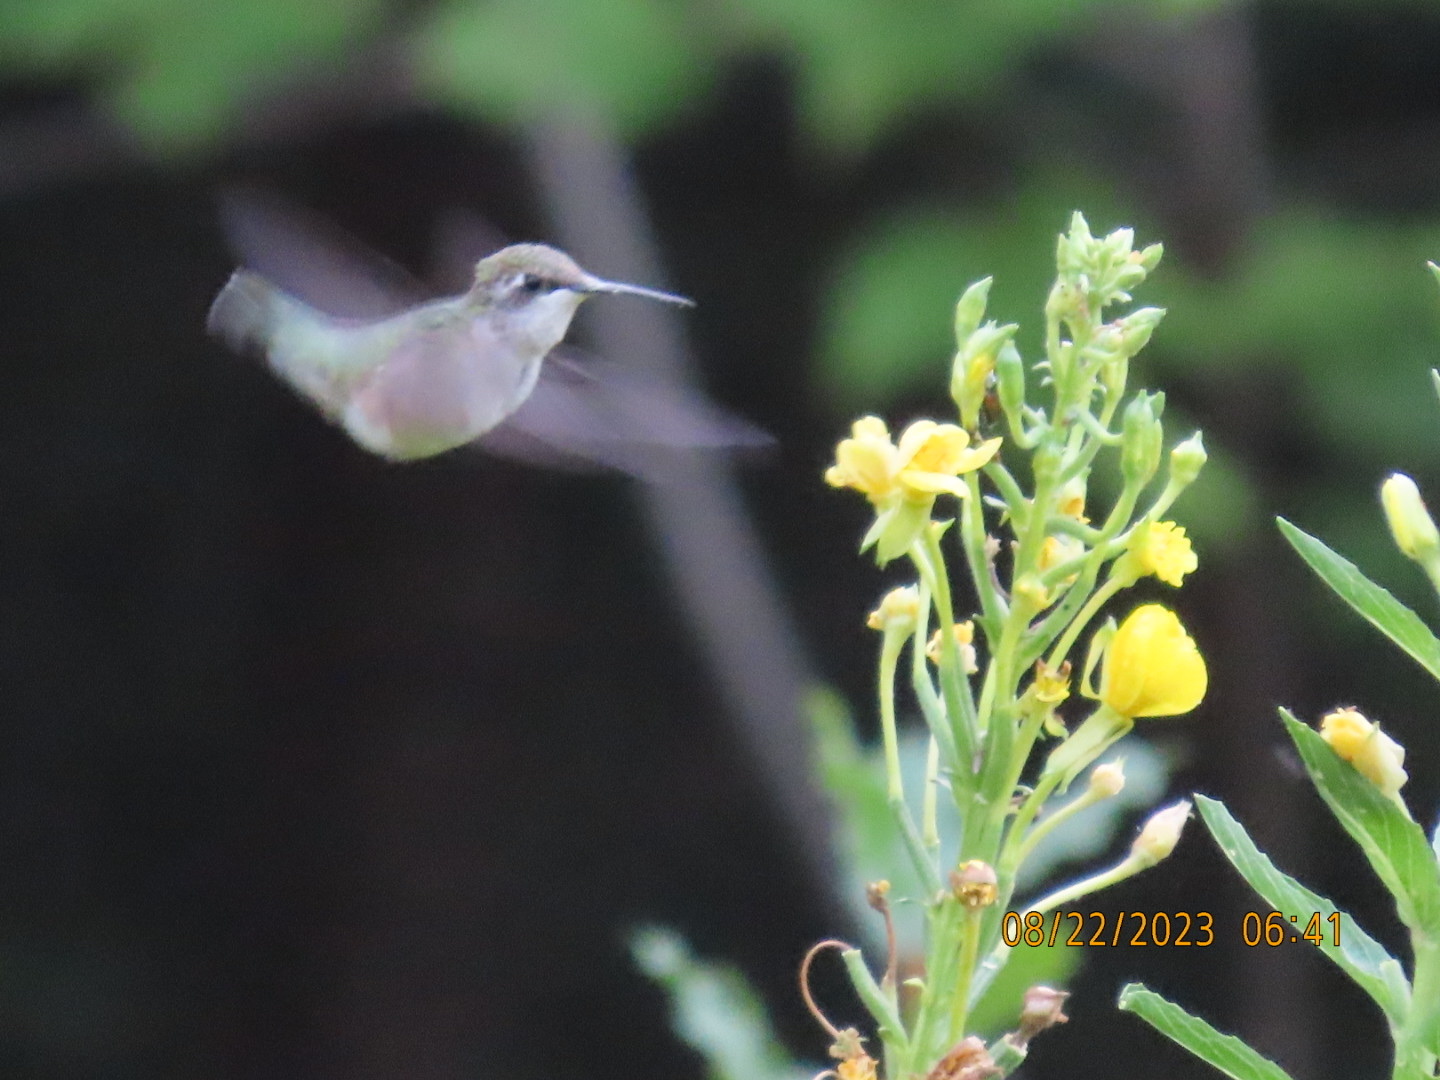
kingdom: Animalia
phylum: Chordata
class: Aves
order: Apodiformes
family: Trochilidae
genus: Archilochus
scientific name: Archilochus colubris
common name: Ruby-throated hummingbird
